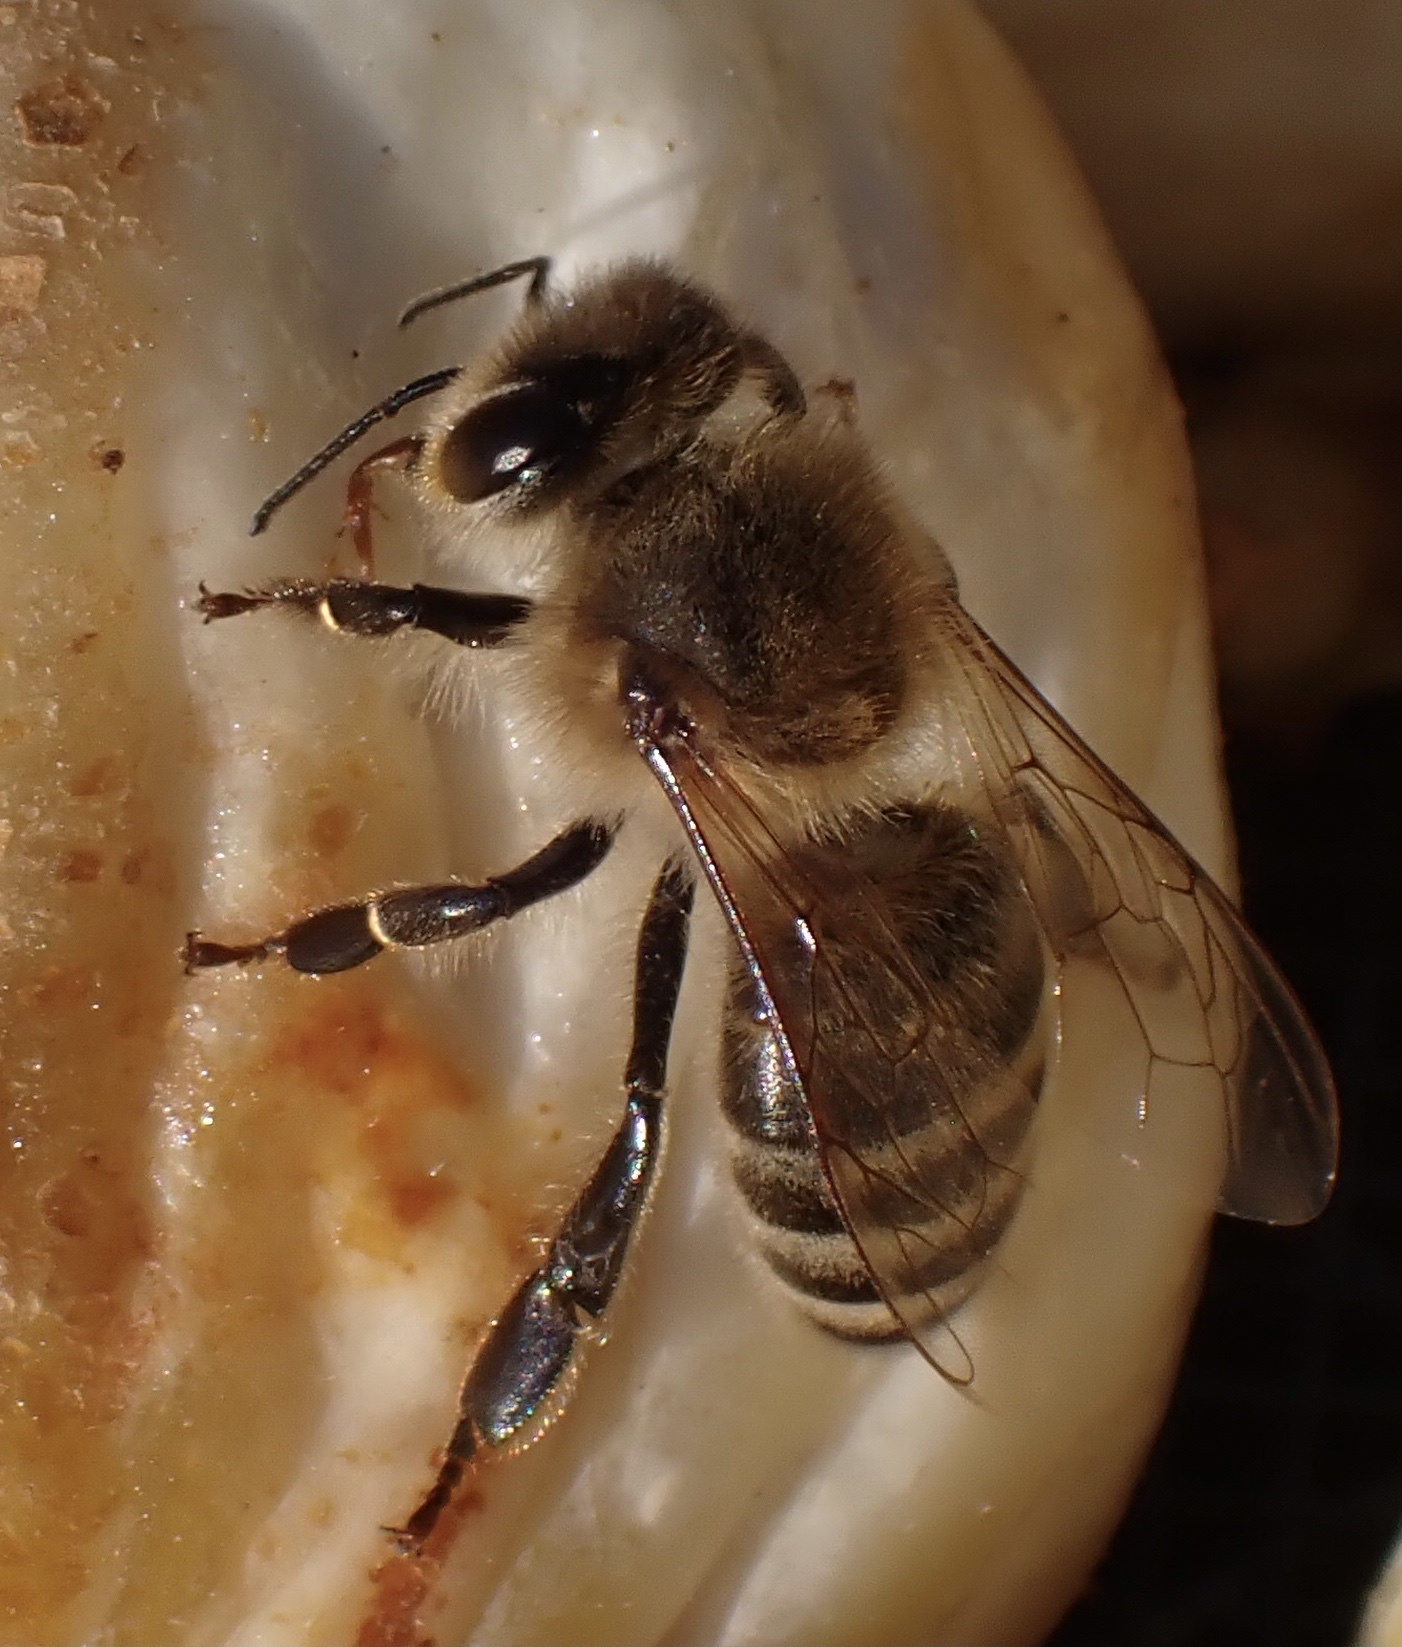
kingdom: Animalia
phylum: Arthropoda
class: Insecta
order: Hymenoptera
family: Apidae
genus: Apis
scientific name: Apis mellifera
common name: Honey bee
